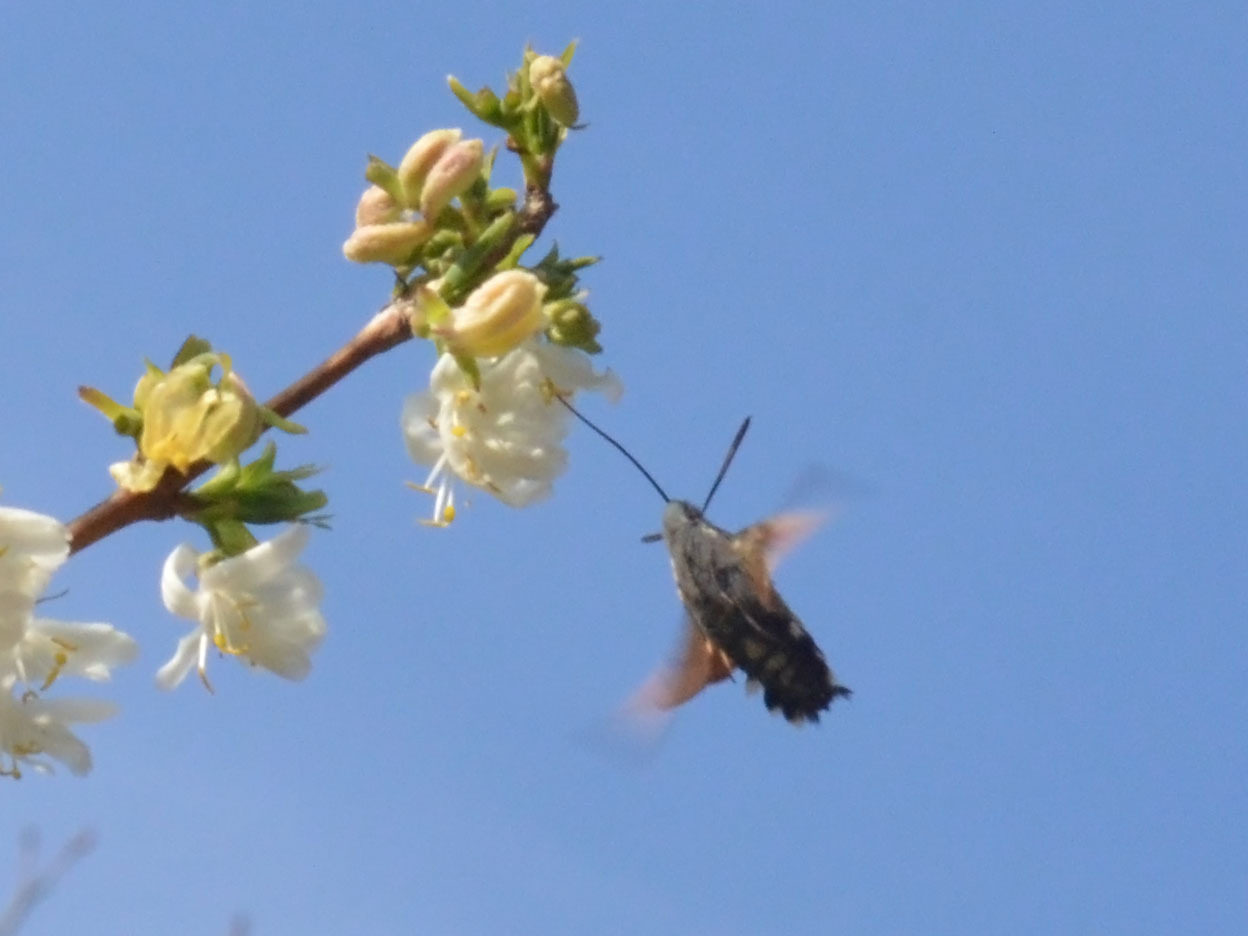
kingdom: Animalia
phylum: Arthropoda
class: Insecta
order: Lepidoptera
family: Sphingidae
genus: Macroglossum
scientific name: Macroglossum stellatarum
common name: Humming-bird hawk-moth
